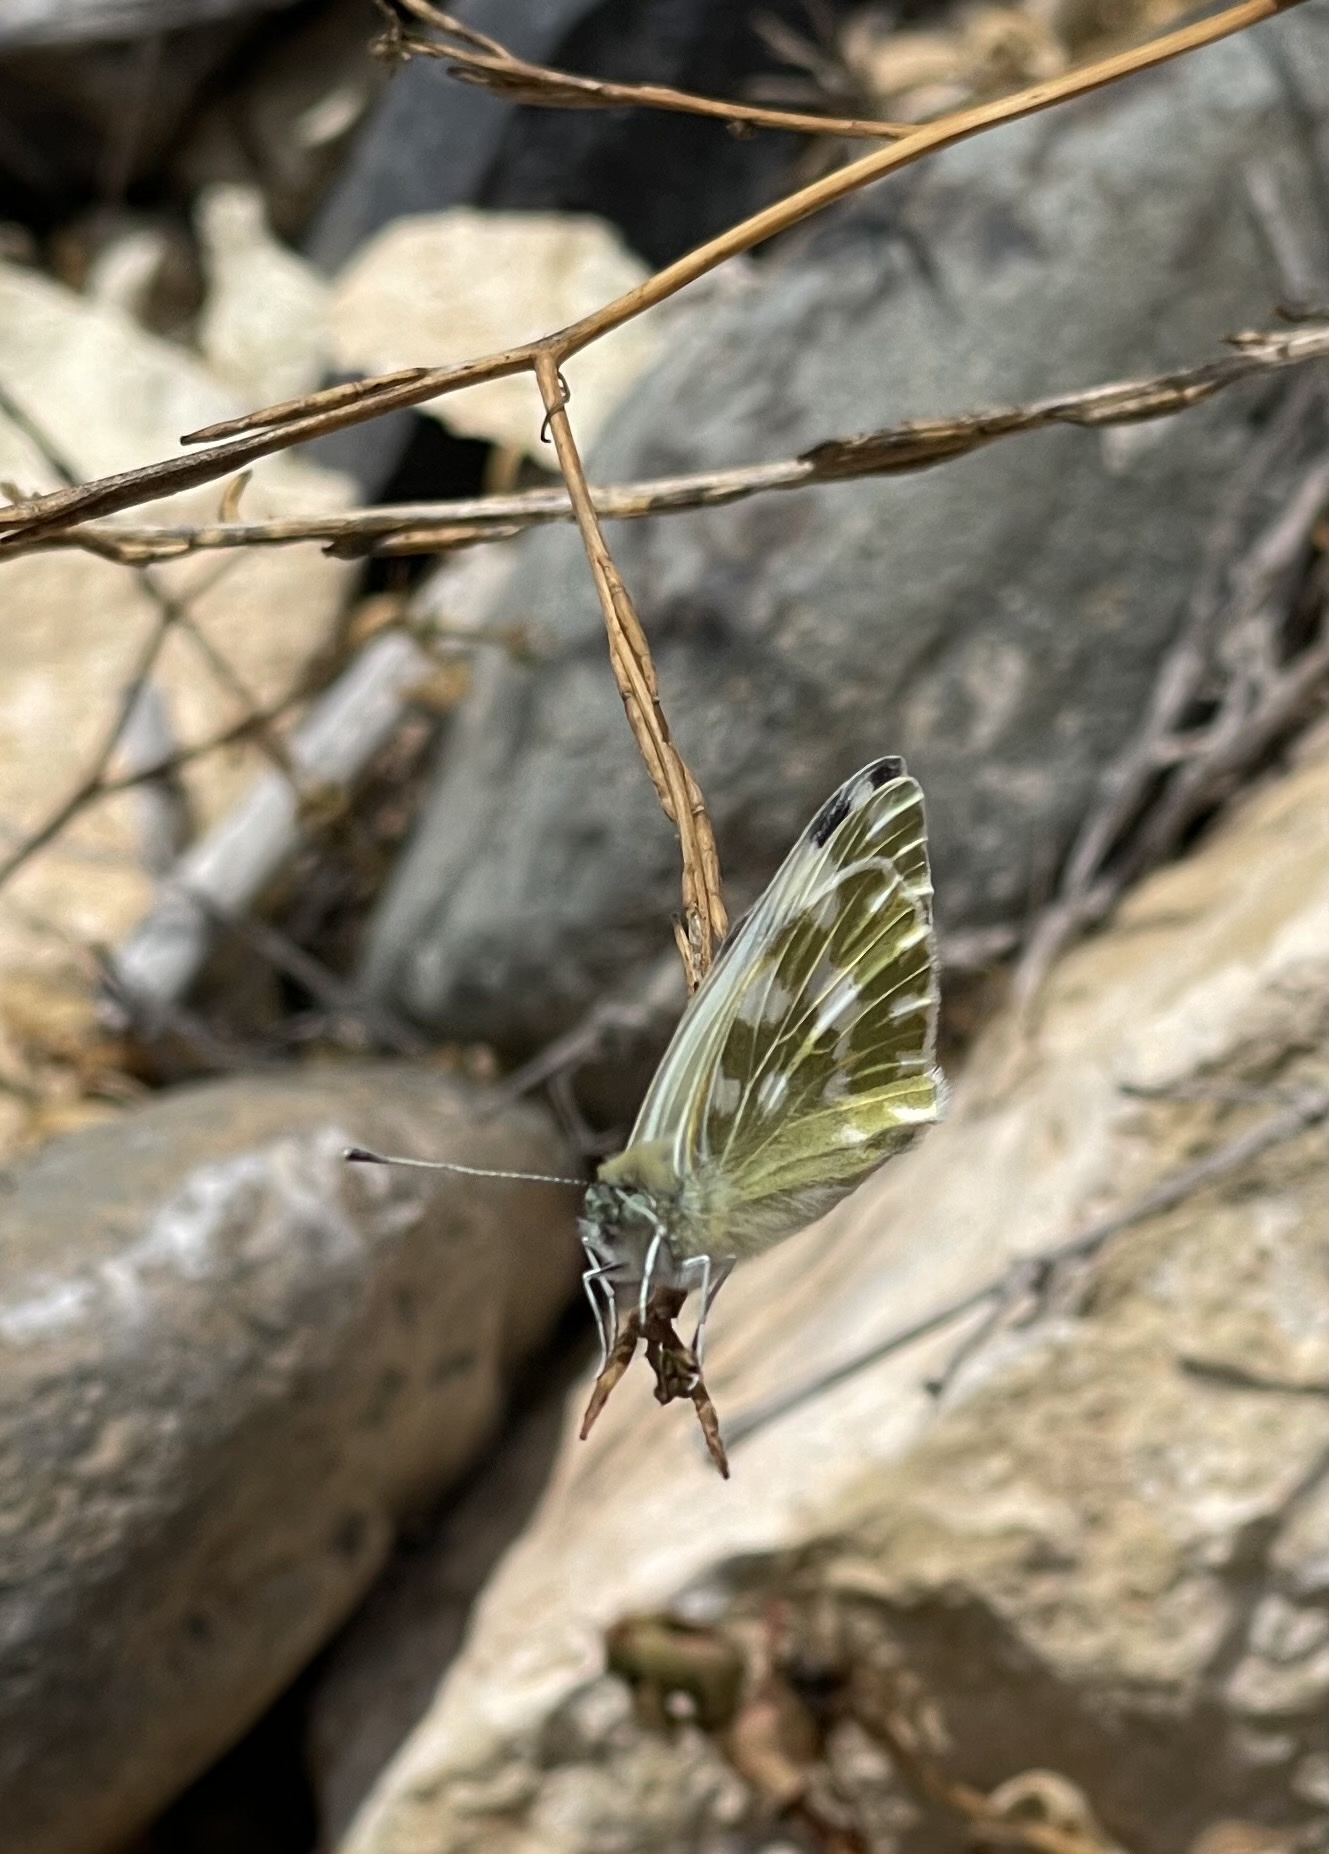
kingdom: Animalia
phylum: Arthropoda
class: Insecta
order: Lepidoptera
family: Pieridae
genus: Pontia
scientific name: Pontia daplidice
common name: Bath white
